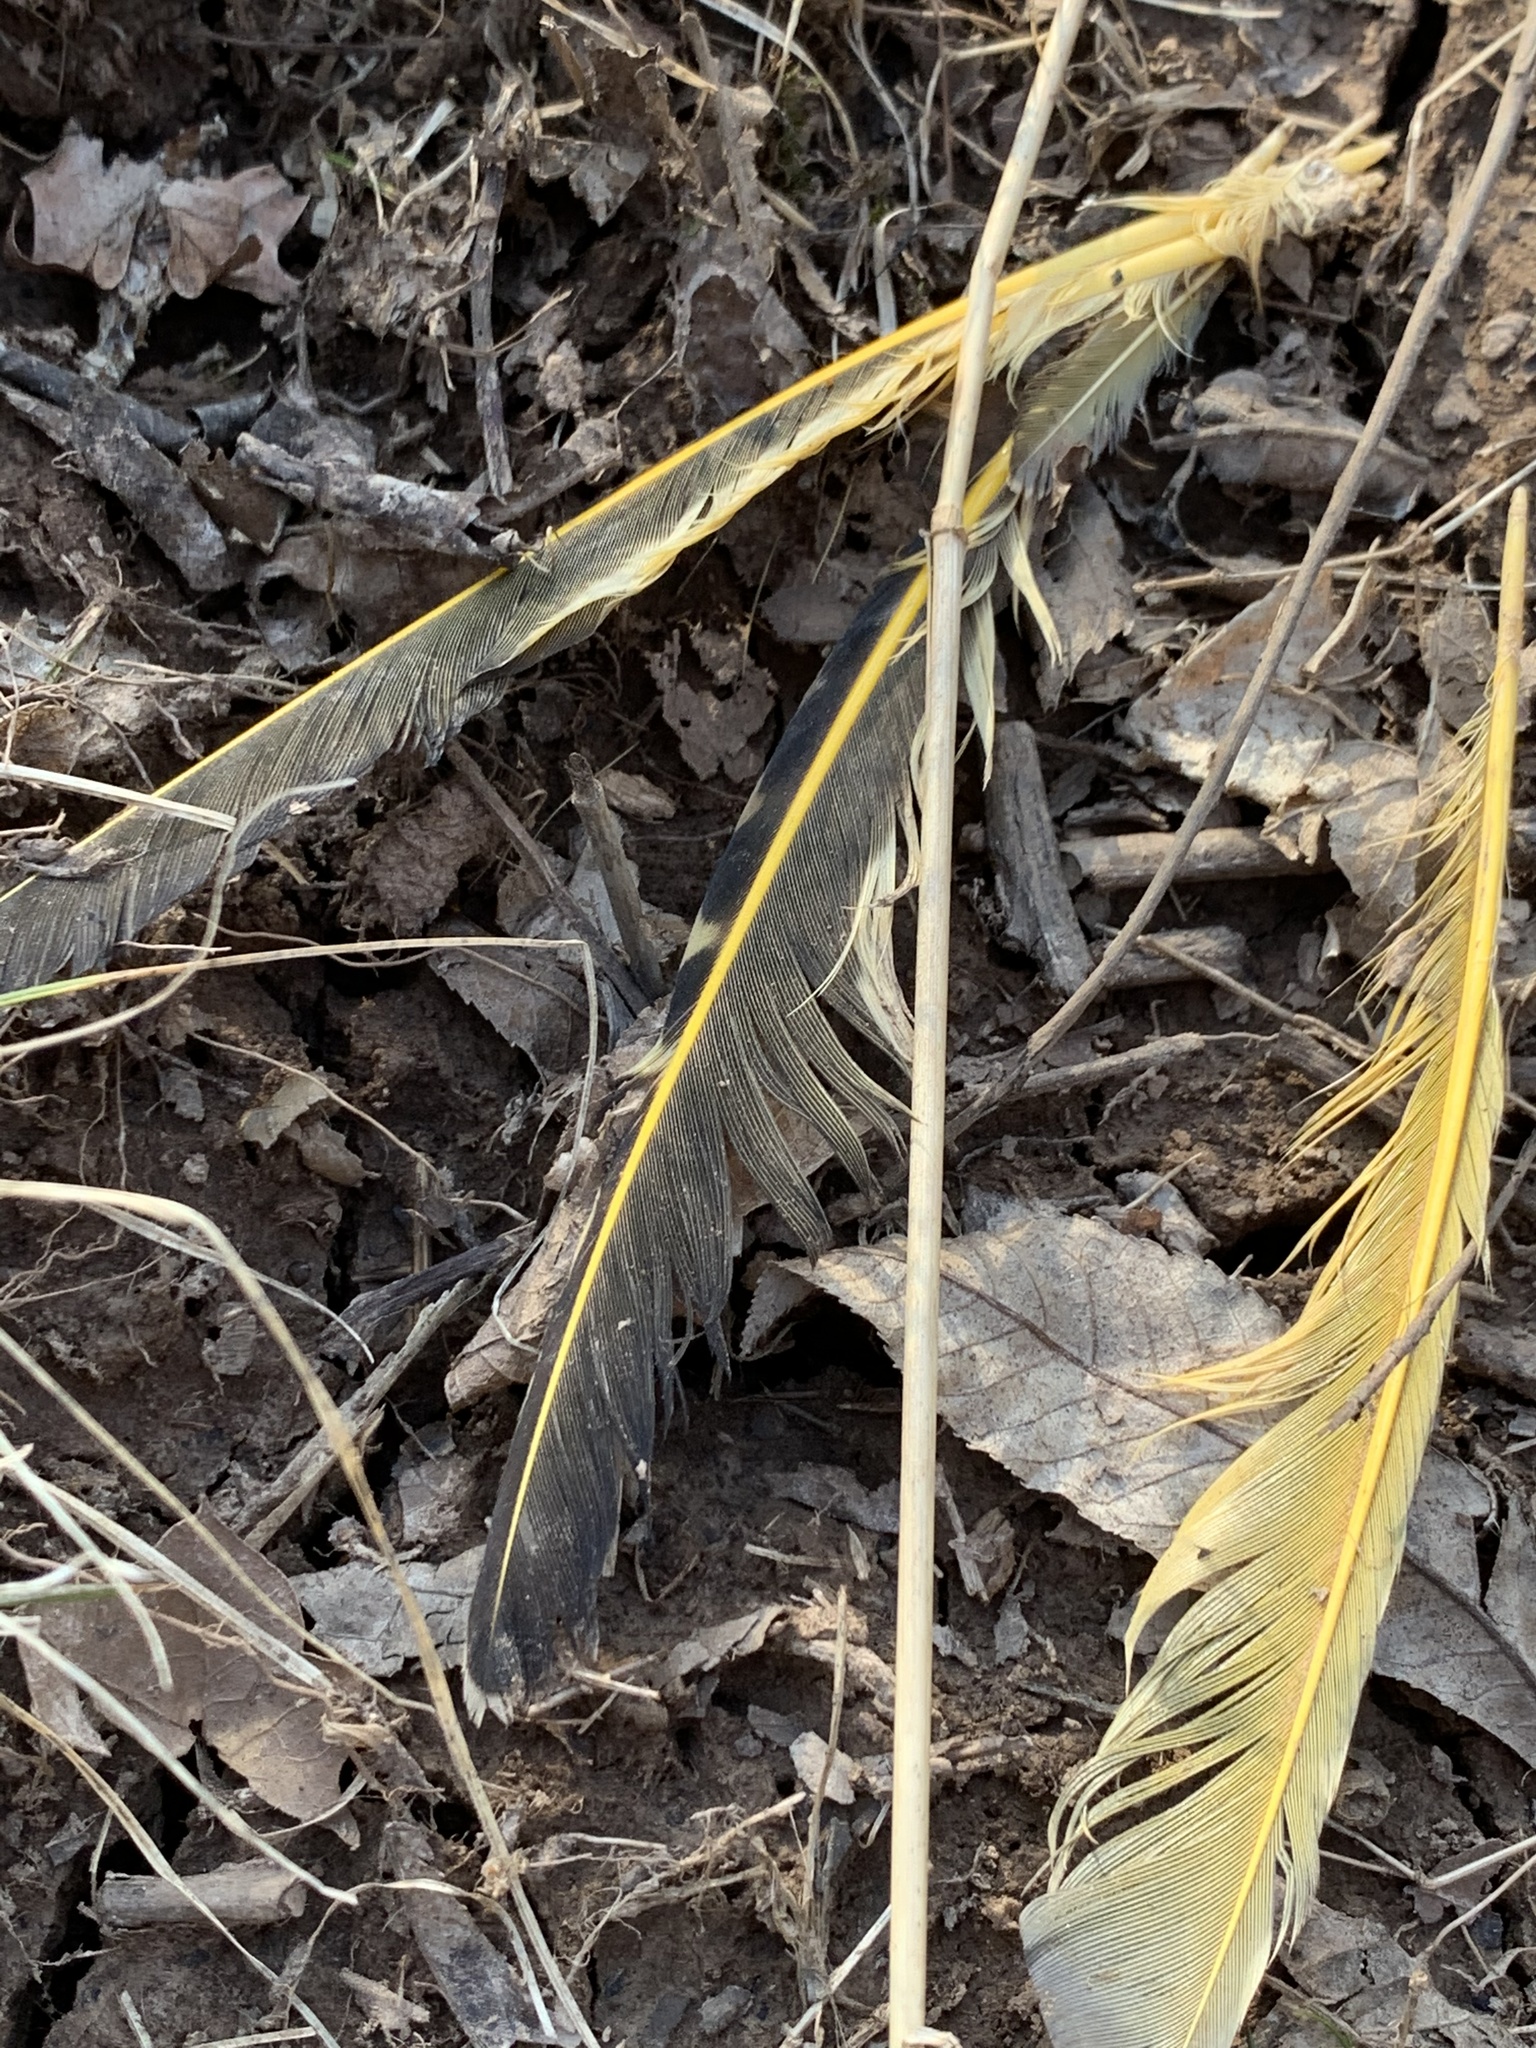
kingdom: Animalia
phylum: Chordata
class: Aves
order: Piciformes
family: Picidae
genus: Colaptes
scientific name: Colaptes auratus
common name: Northern flicker
